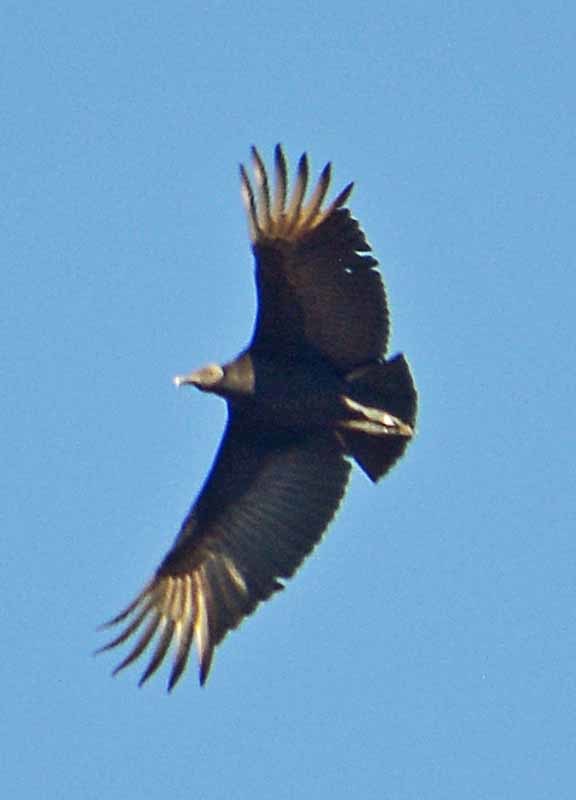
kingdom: Animalia
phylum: Chordata
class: Aves
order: Accipitriformes
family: Cathartidae
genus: Coragyps
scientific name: Coragyps atratus
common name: Black vulture
